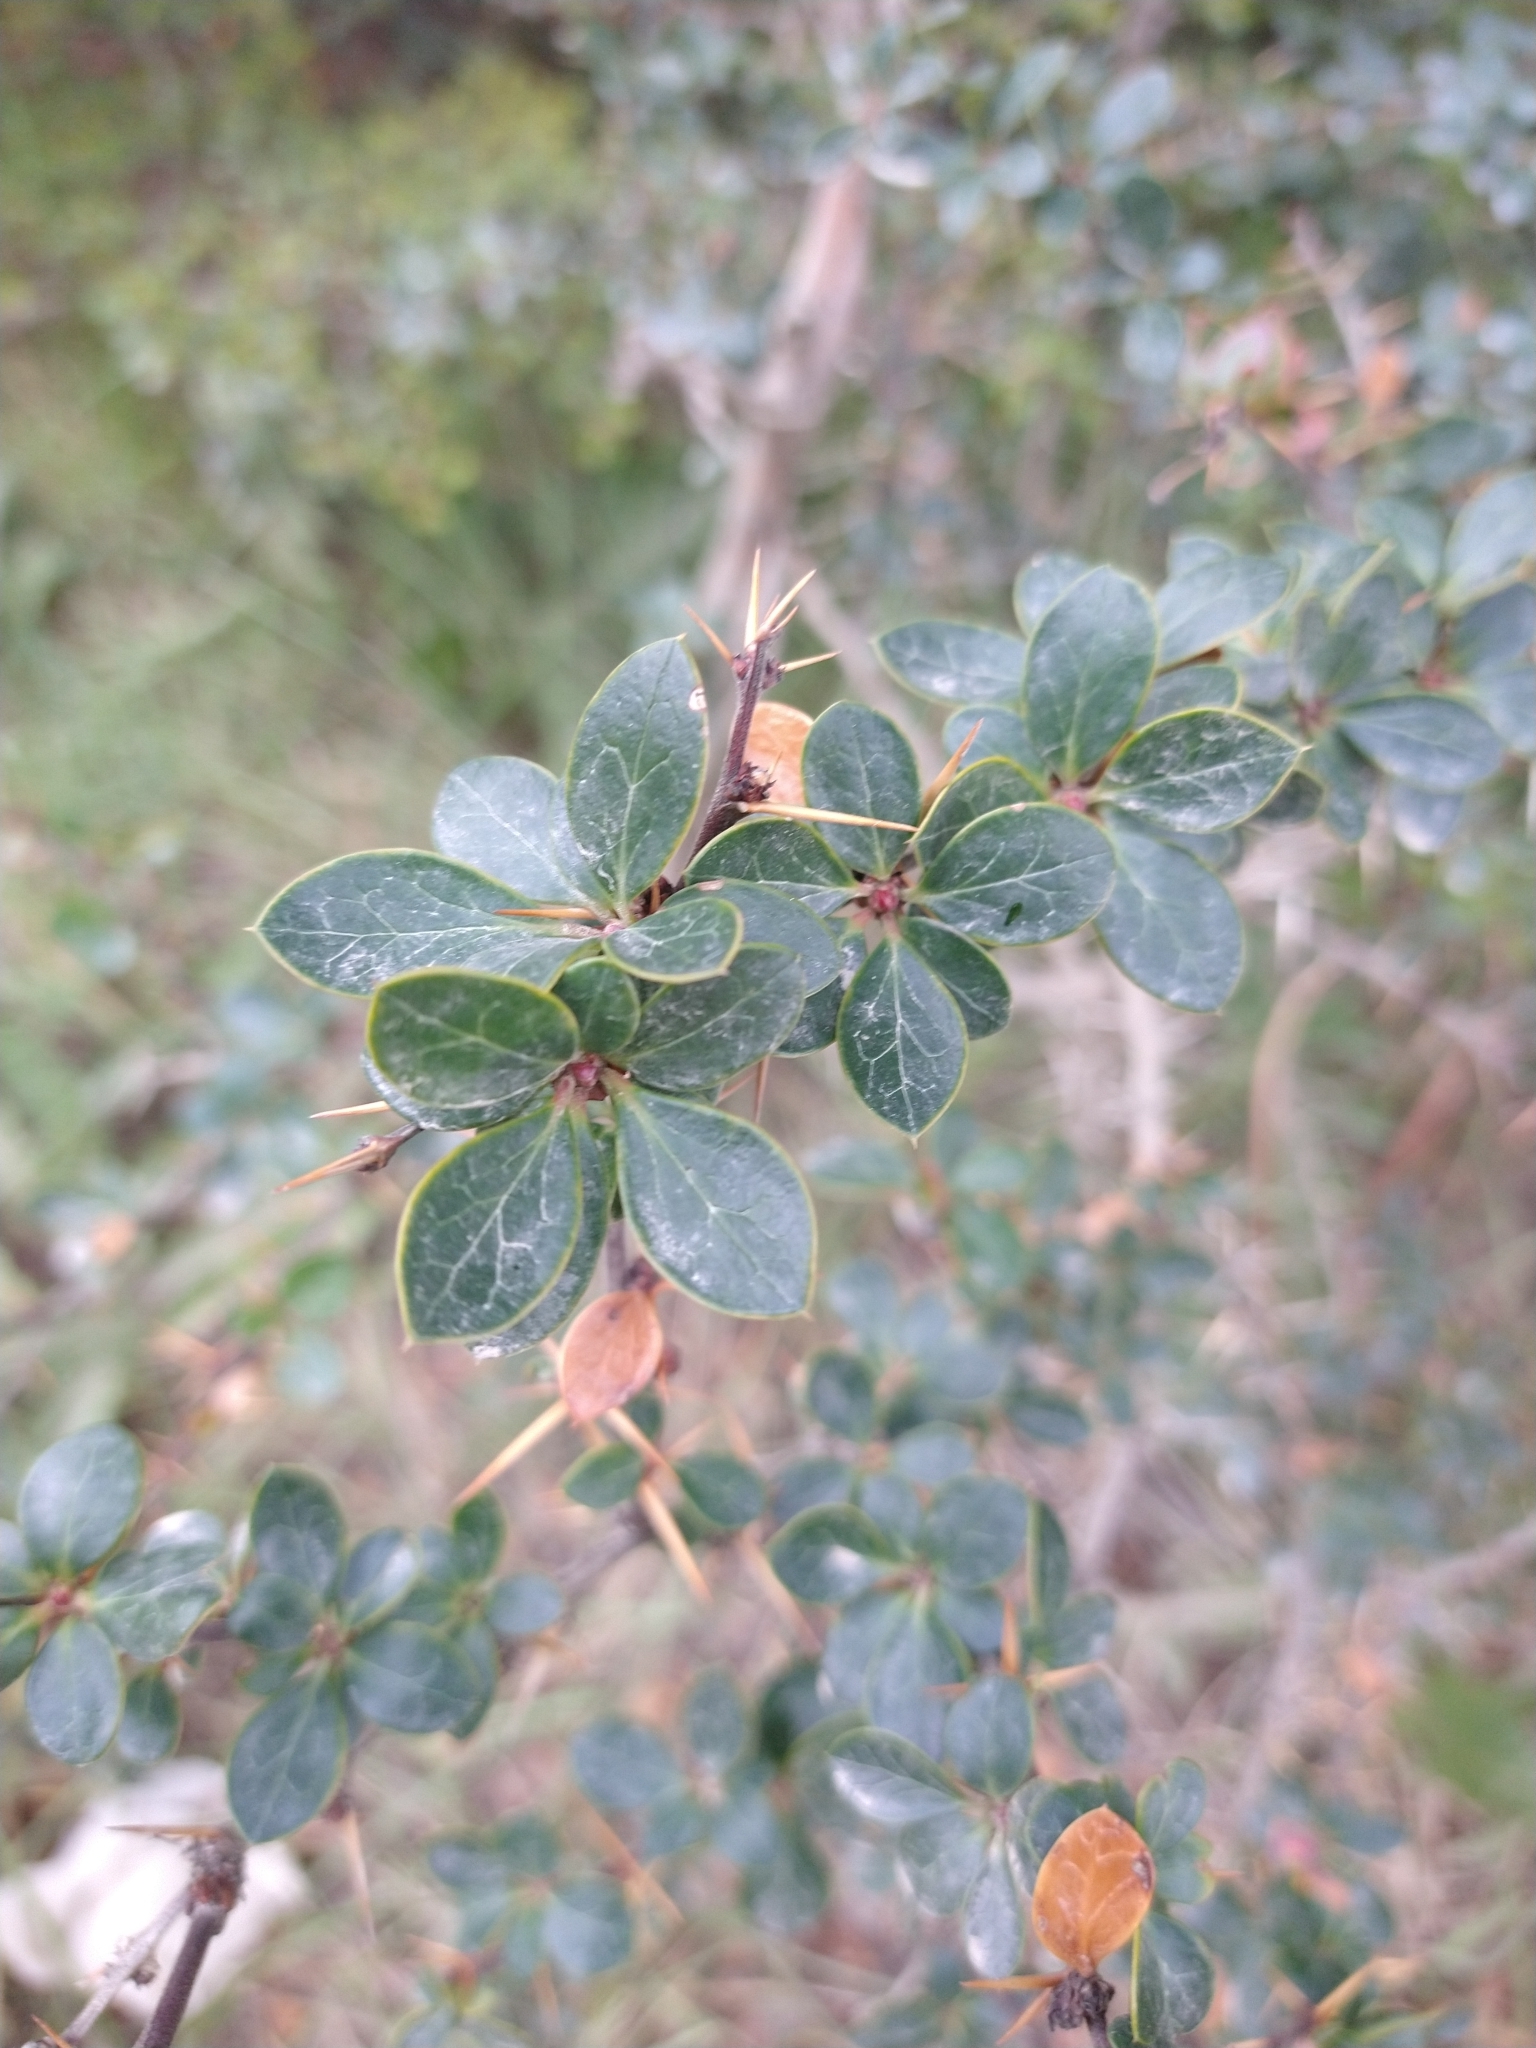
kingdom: Plantae
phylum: Tracheophyta
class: Magnoliopsida
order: Ranunculales
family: Berberidaceae
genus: Berberis
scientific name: Berberis microphylla
